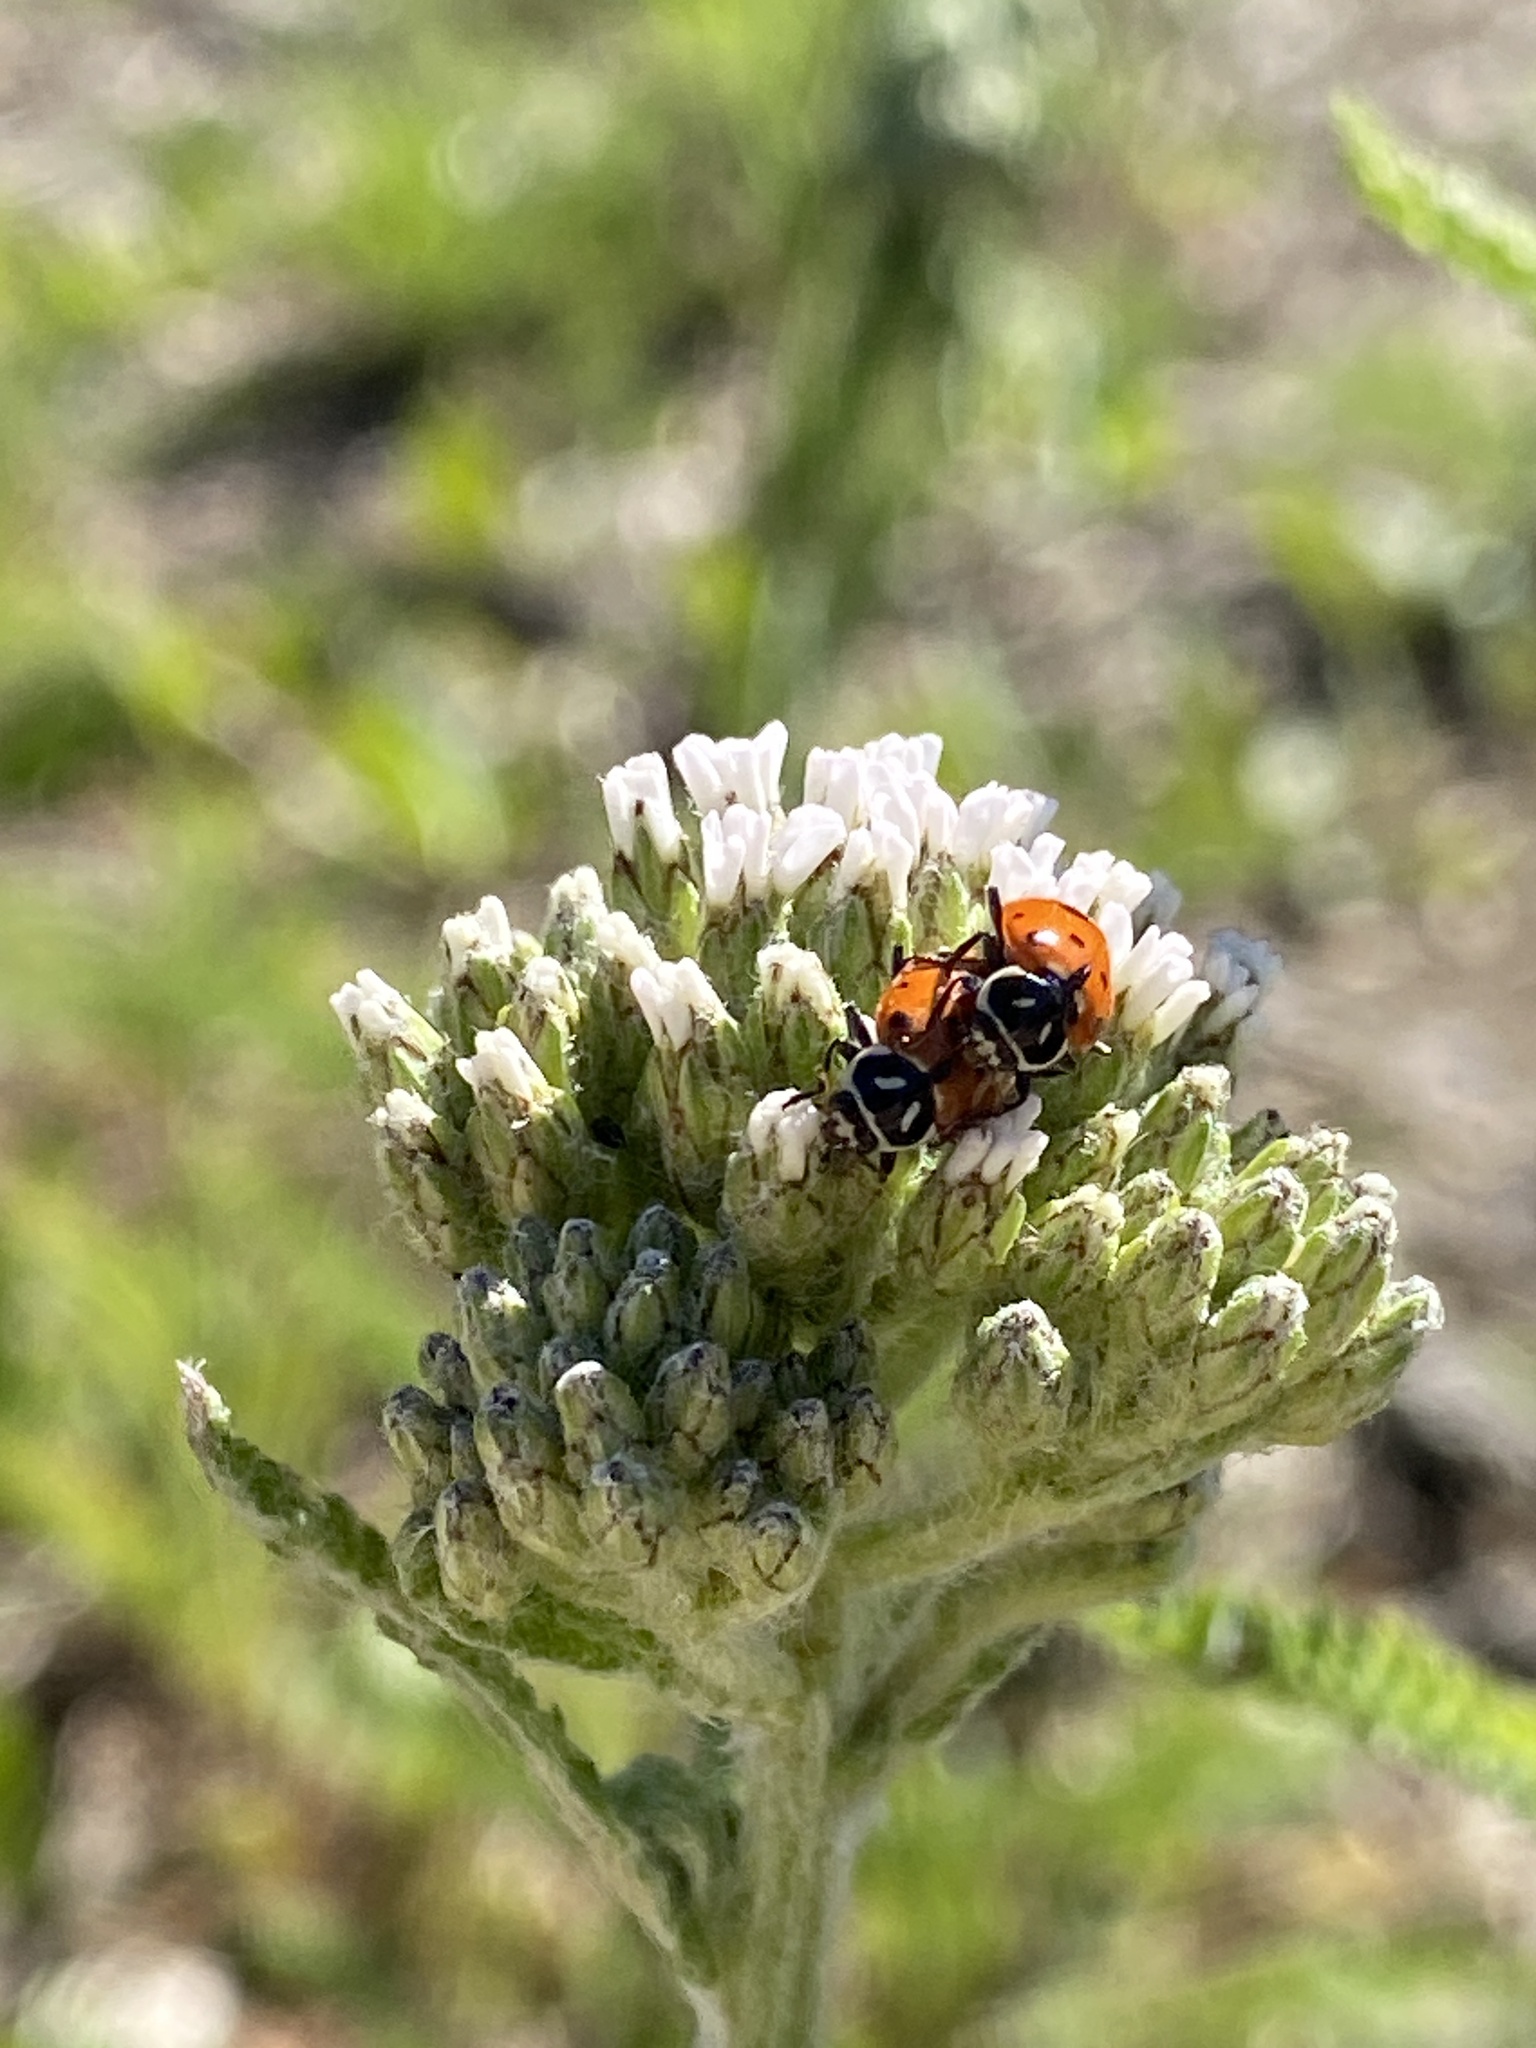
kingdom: Animalia
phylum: Arthropoda
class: Insecta
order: Coleoptera
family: Coccinellidae
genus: Hippodamia
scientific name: Hippodamia convergens
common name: Convergent lady beetle
